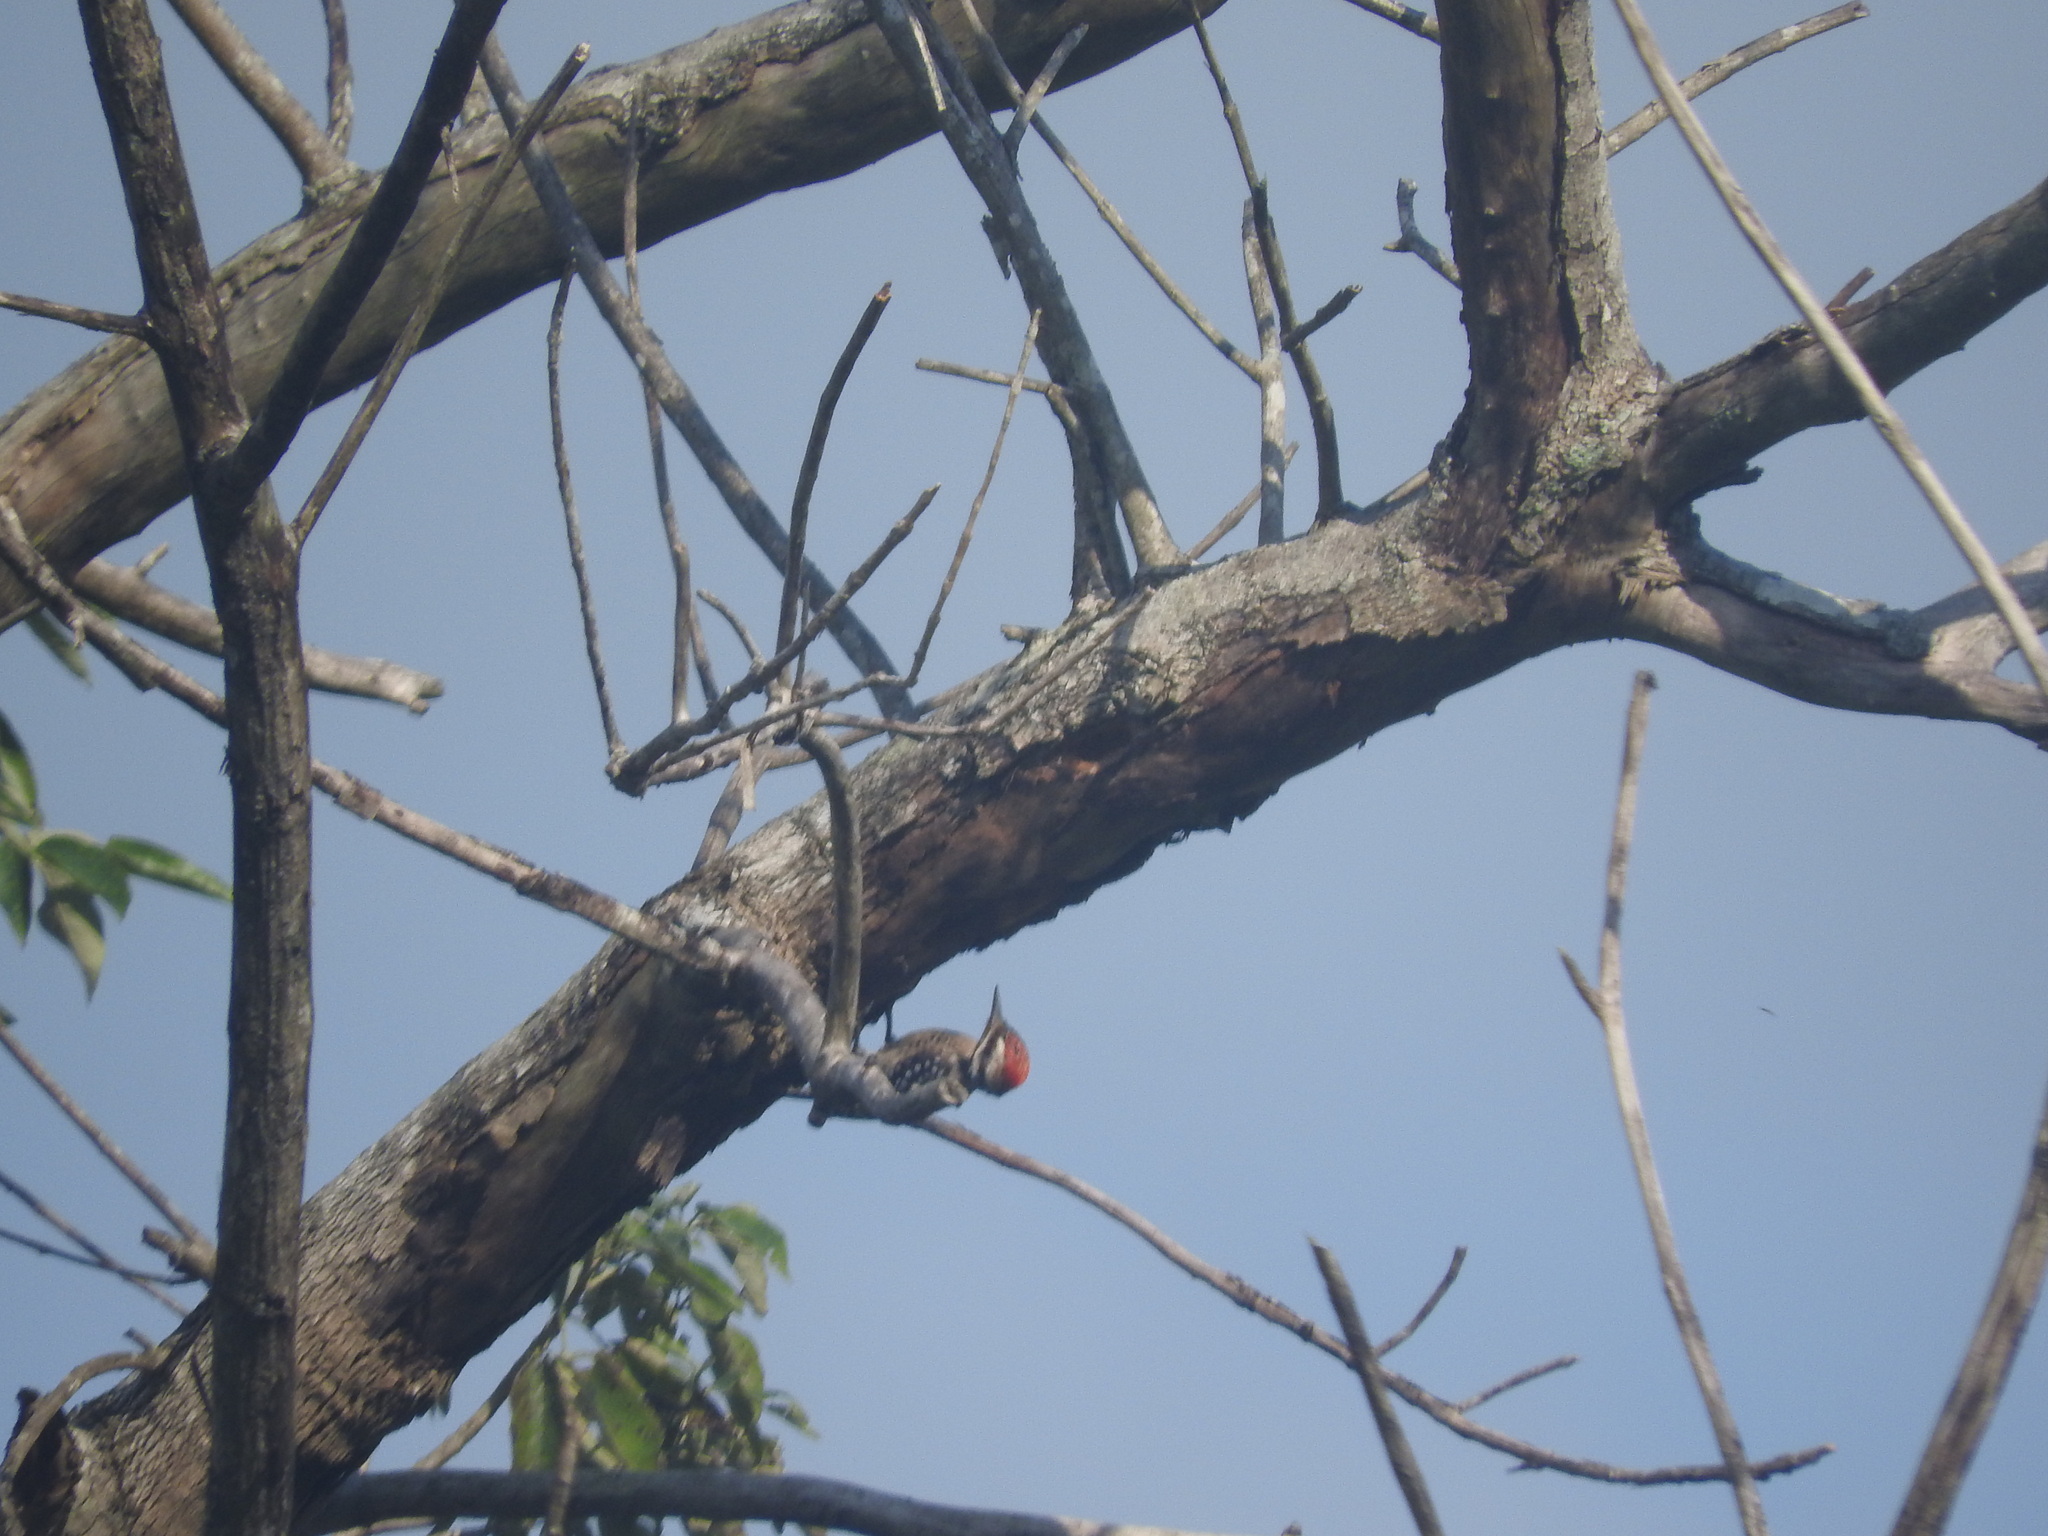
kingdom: Animalia
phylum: Chordata
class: Aves
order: Piciformes
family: Picidae
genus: Dryobates
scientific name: Dryobates scalaris
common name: Ladder-backed woodpecker
